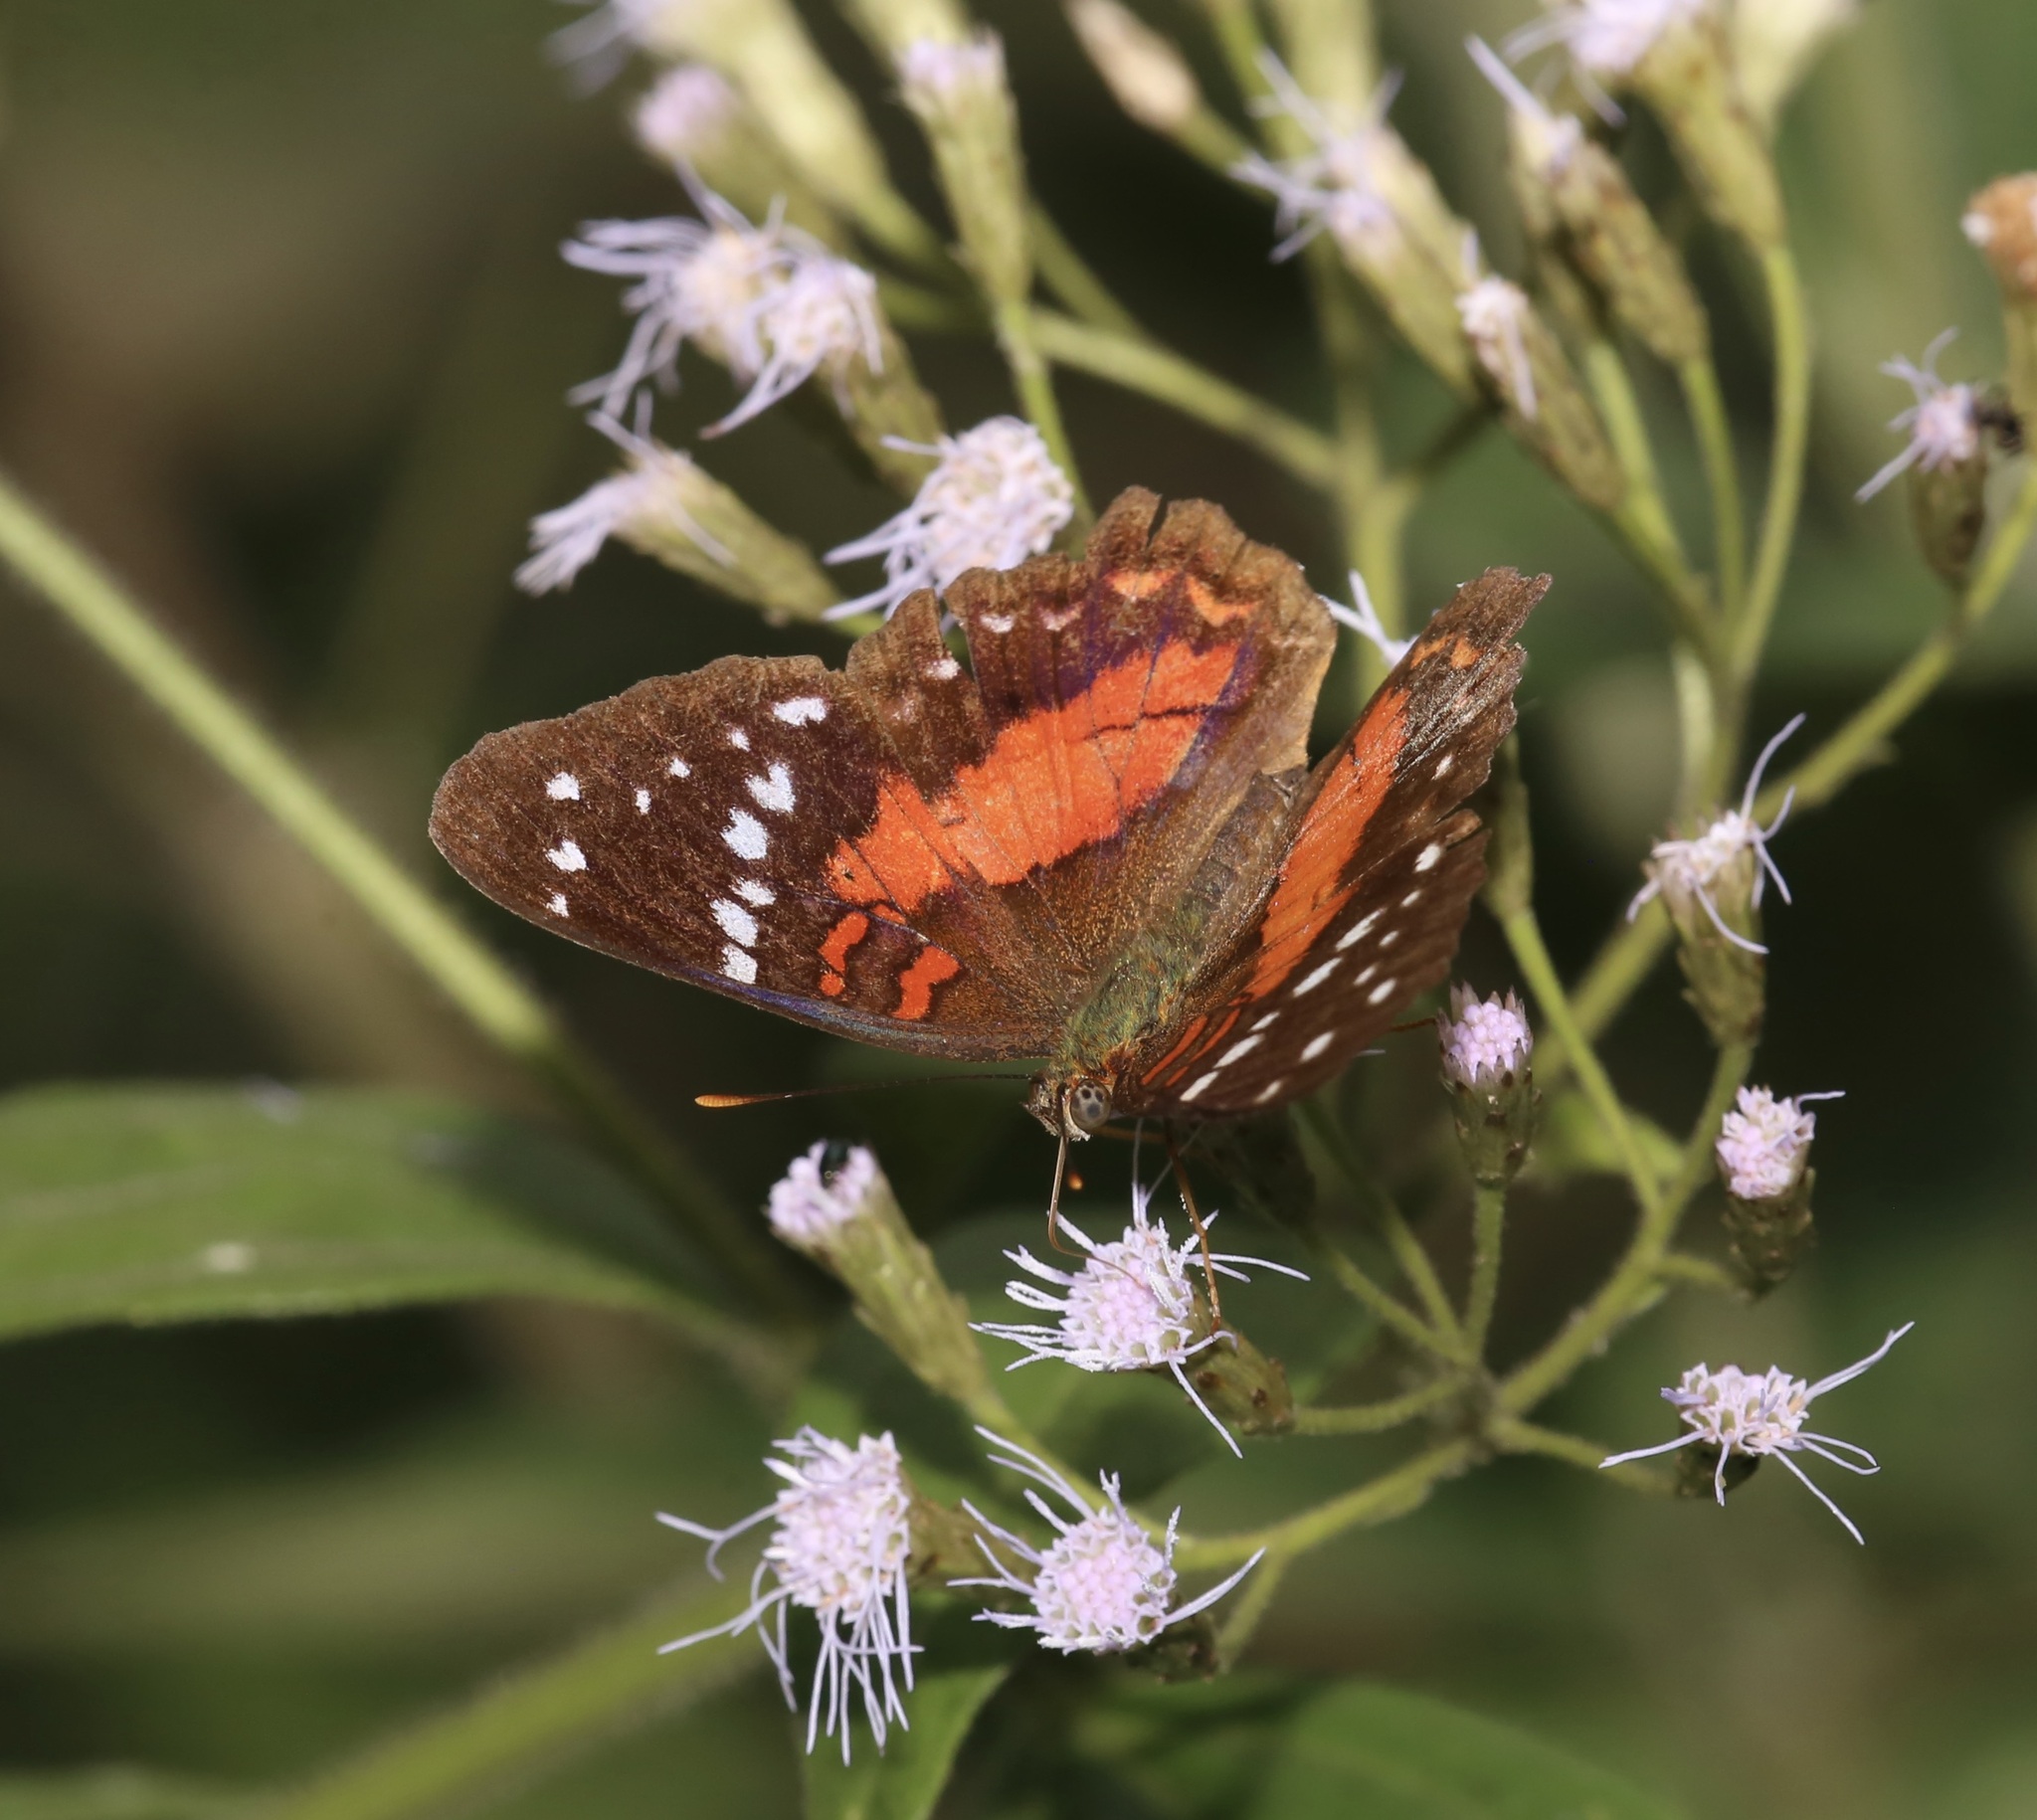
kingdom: Animalia
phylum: Arthropoda
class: Insecta
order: Lepidoptera
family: Nymphalidae
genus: Anartia
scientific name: Anartia amathea
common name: Red peacock
